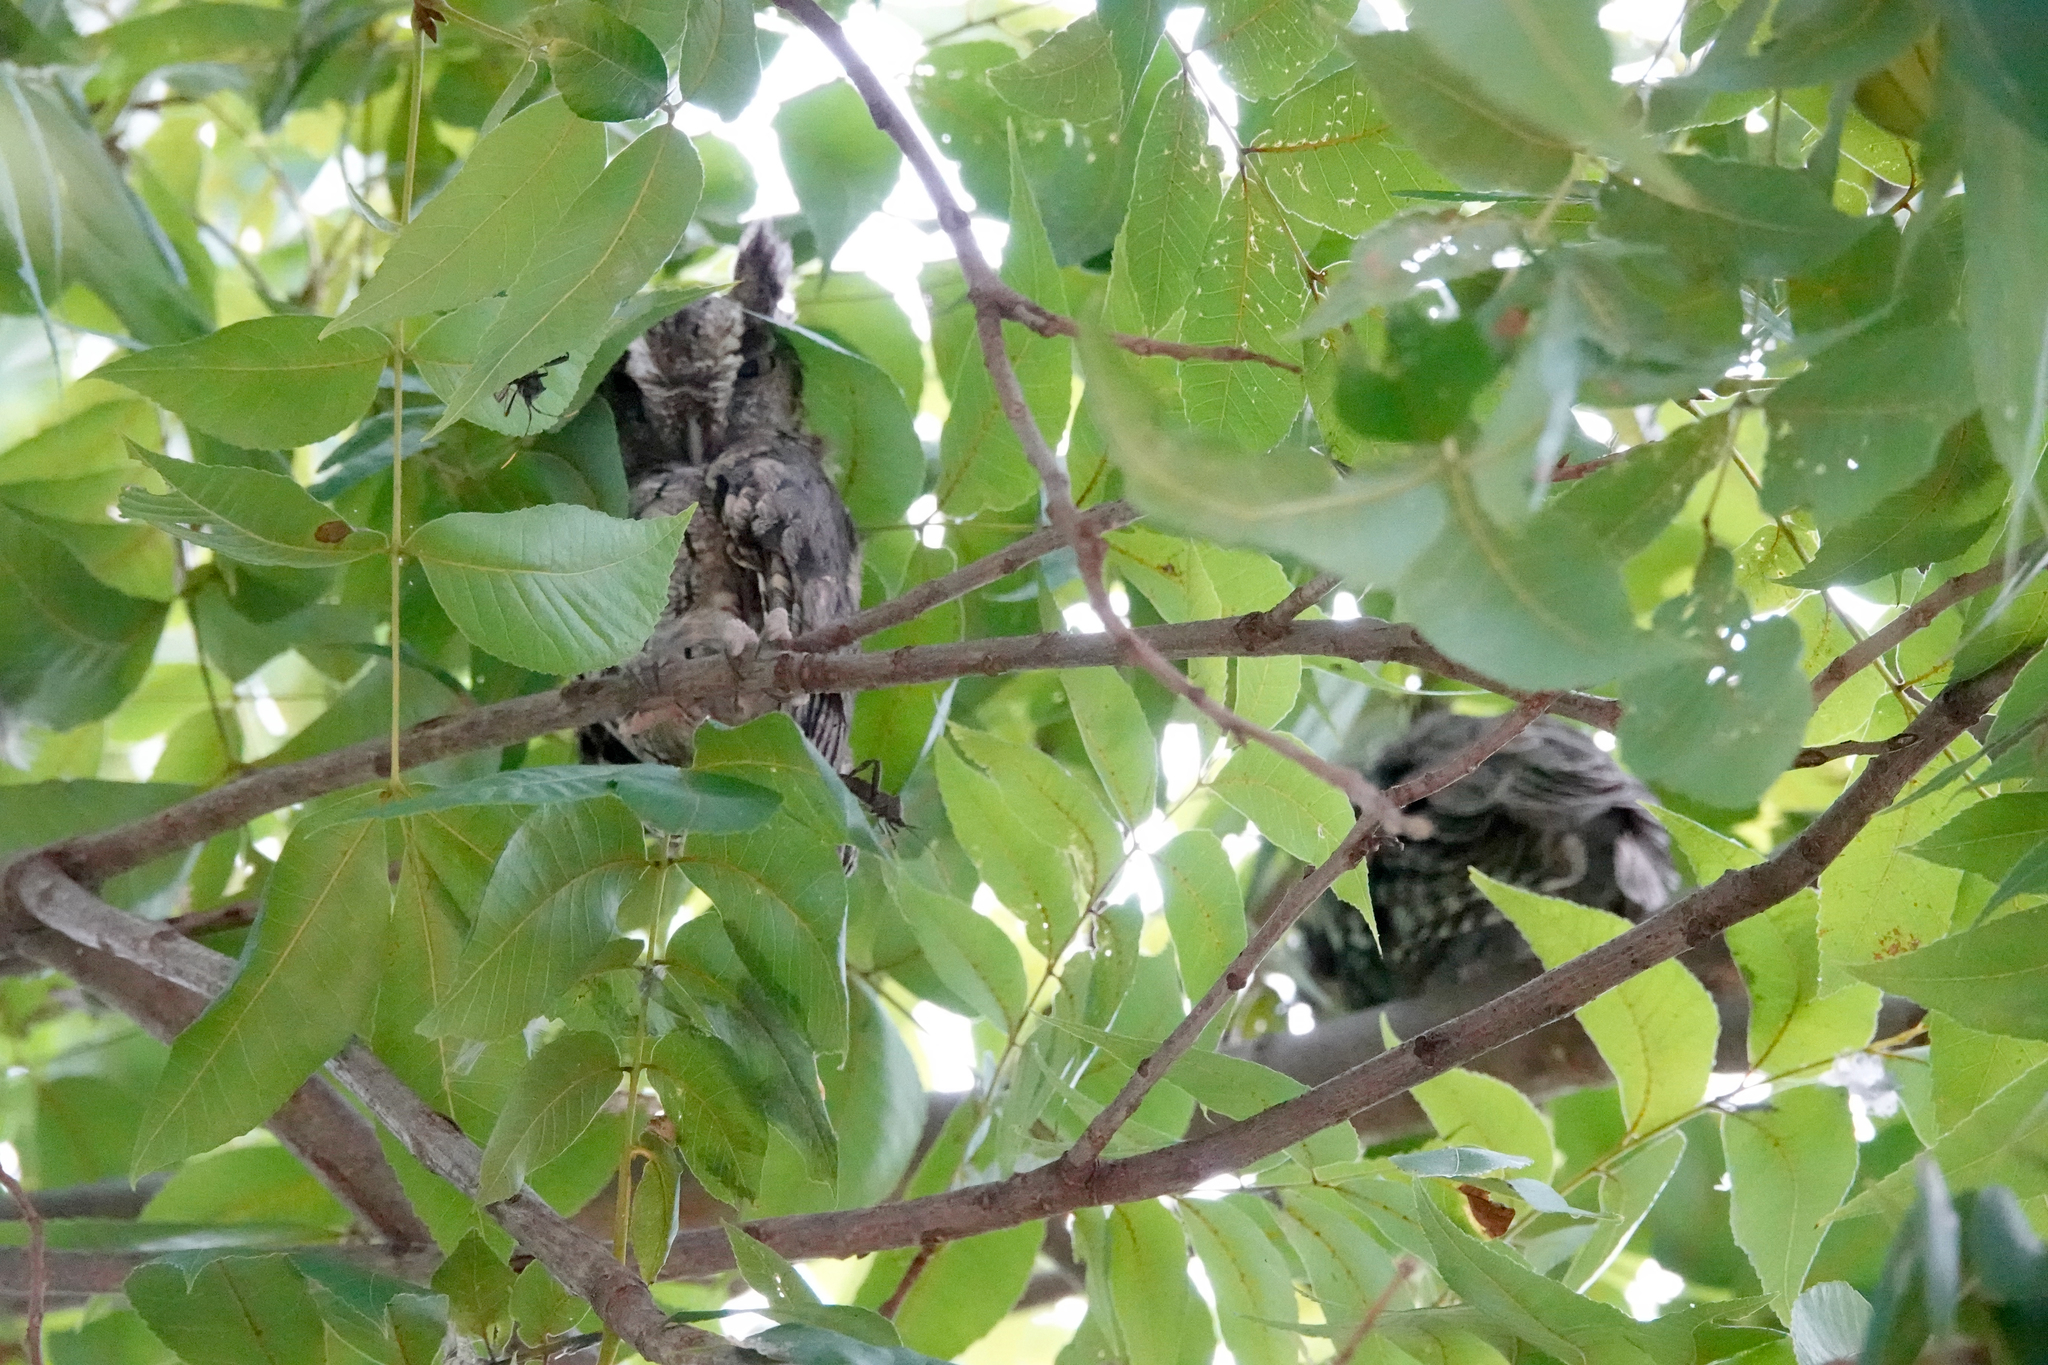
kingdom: Animalia
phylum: Chordata
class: Aves
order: Strigiformes
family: Strigidae
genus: Megascops
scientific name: Megascops asio
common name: Eastern screech-owl
